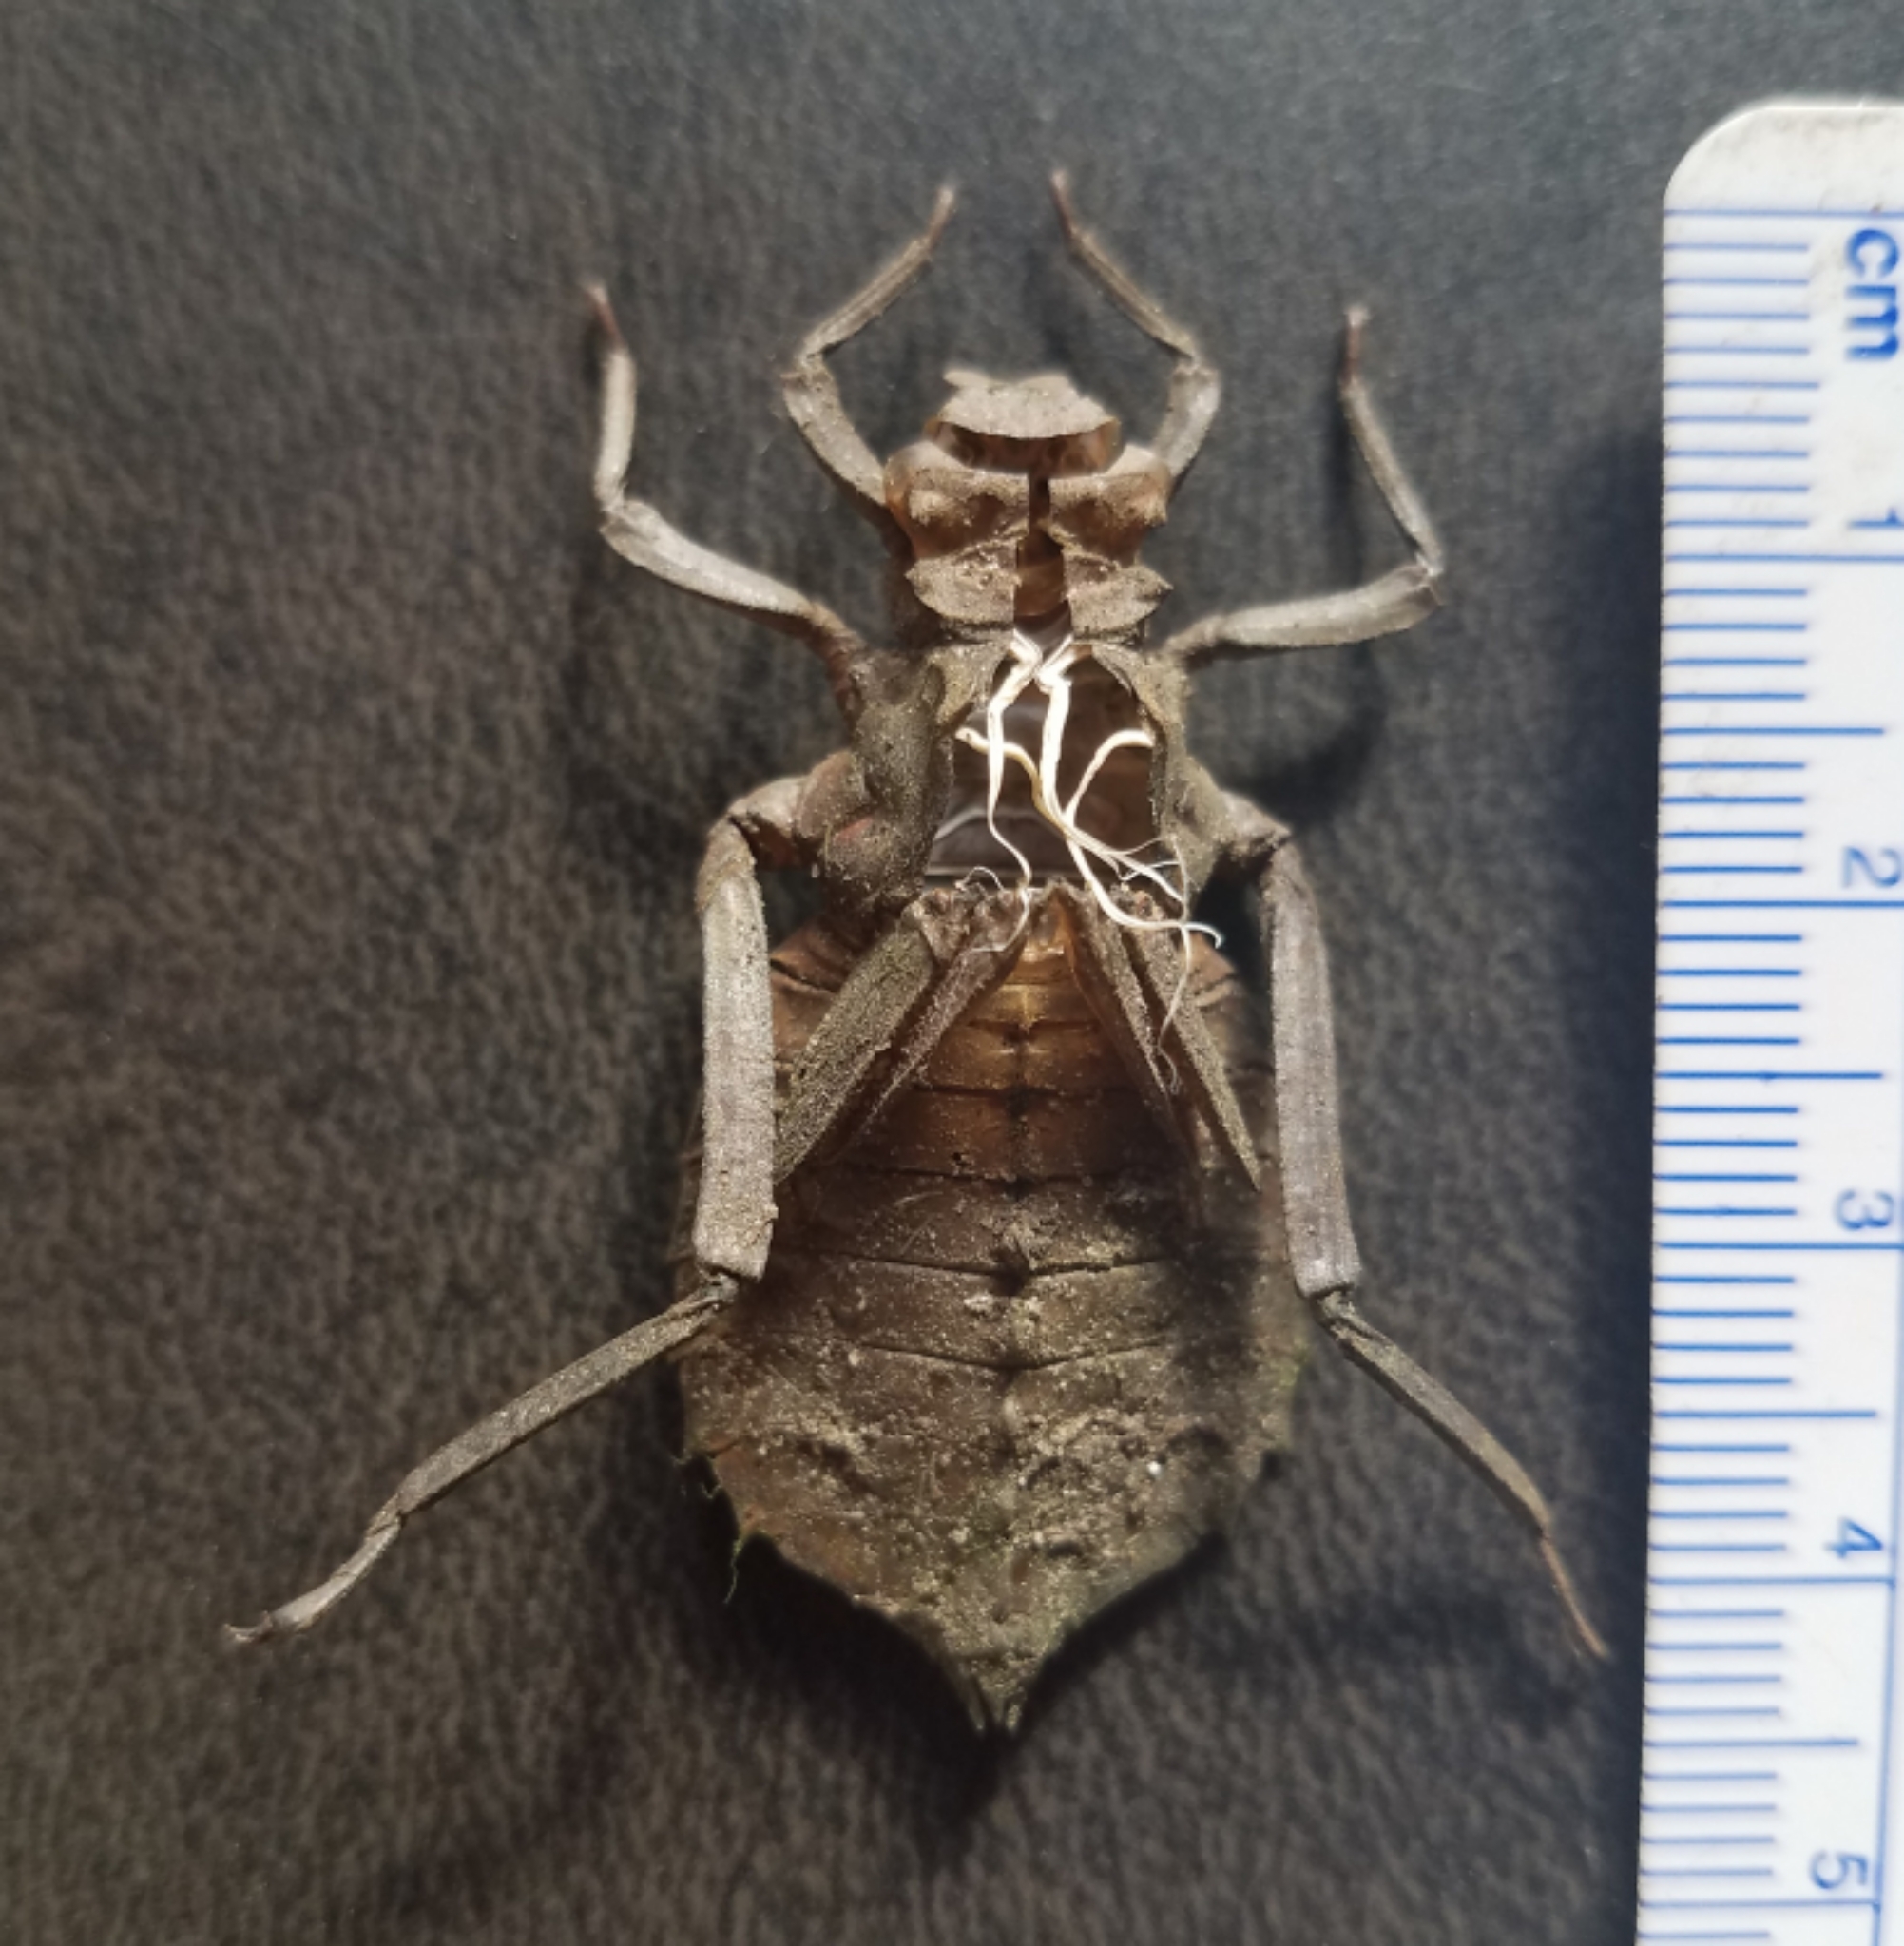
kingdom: Animalia
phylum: Arthropoda
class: Insecta
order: Odonata
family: Gomphidae
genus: Hagenius
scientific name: Hagenius brevistylus
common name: Dragonhunter
